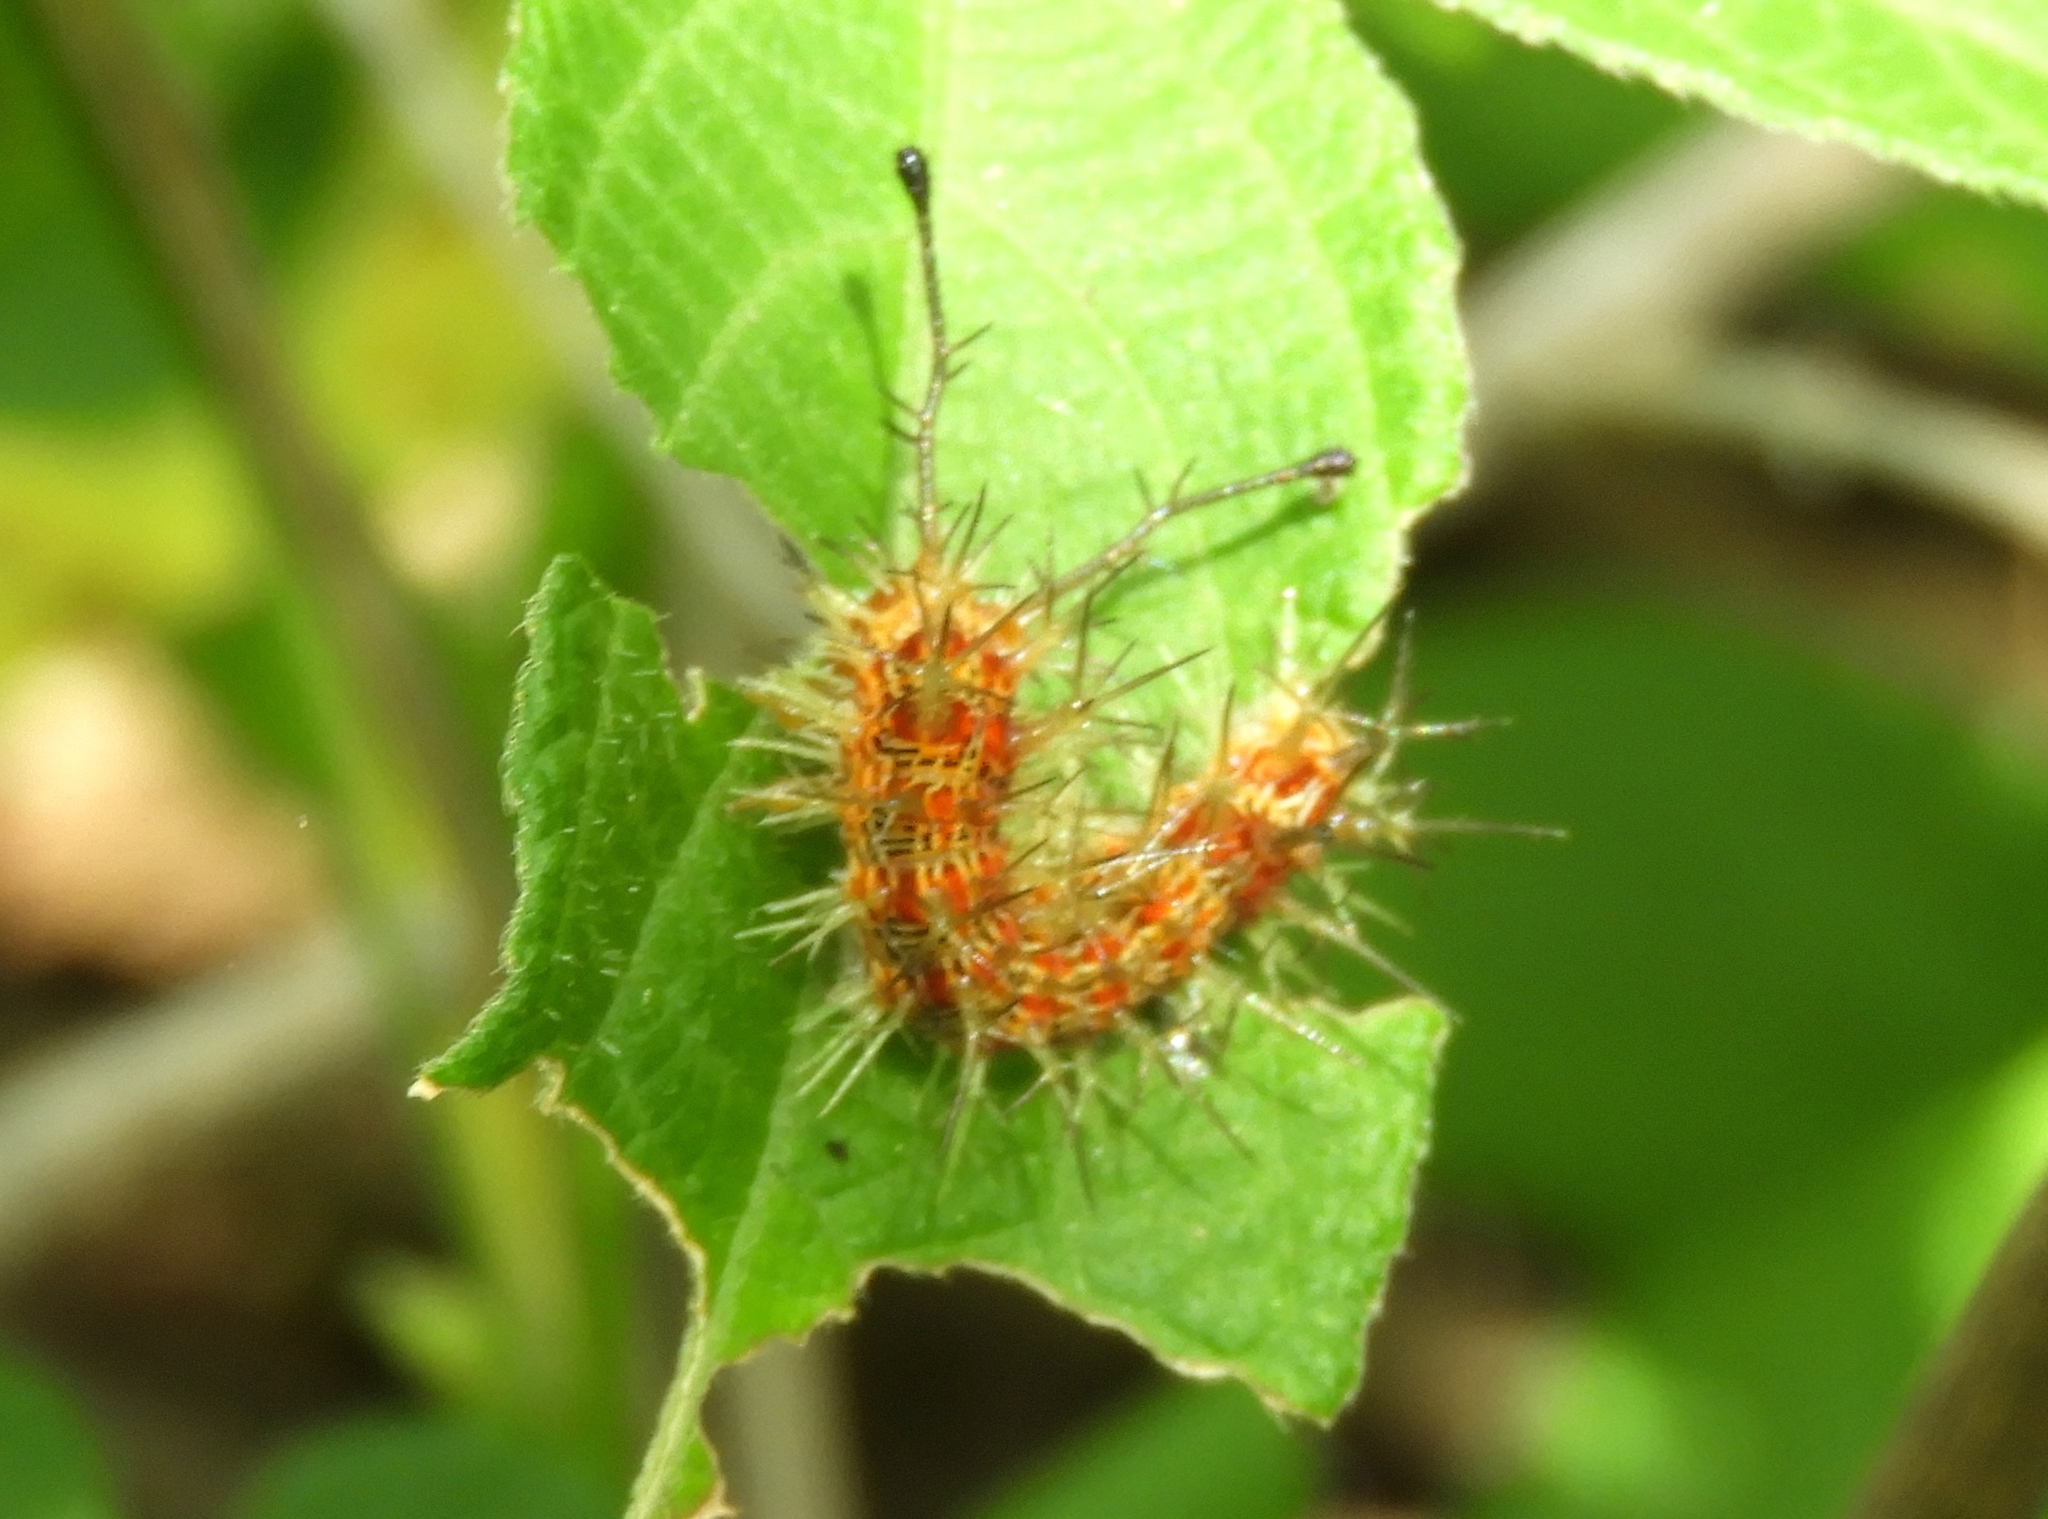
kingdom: Animalia
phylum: Arthropoda
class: Insecta
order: Lepidoptera
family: Nymphalidae
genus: Hamadryas
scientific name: Hamadryas februa
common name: Gray cracker
